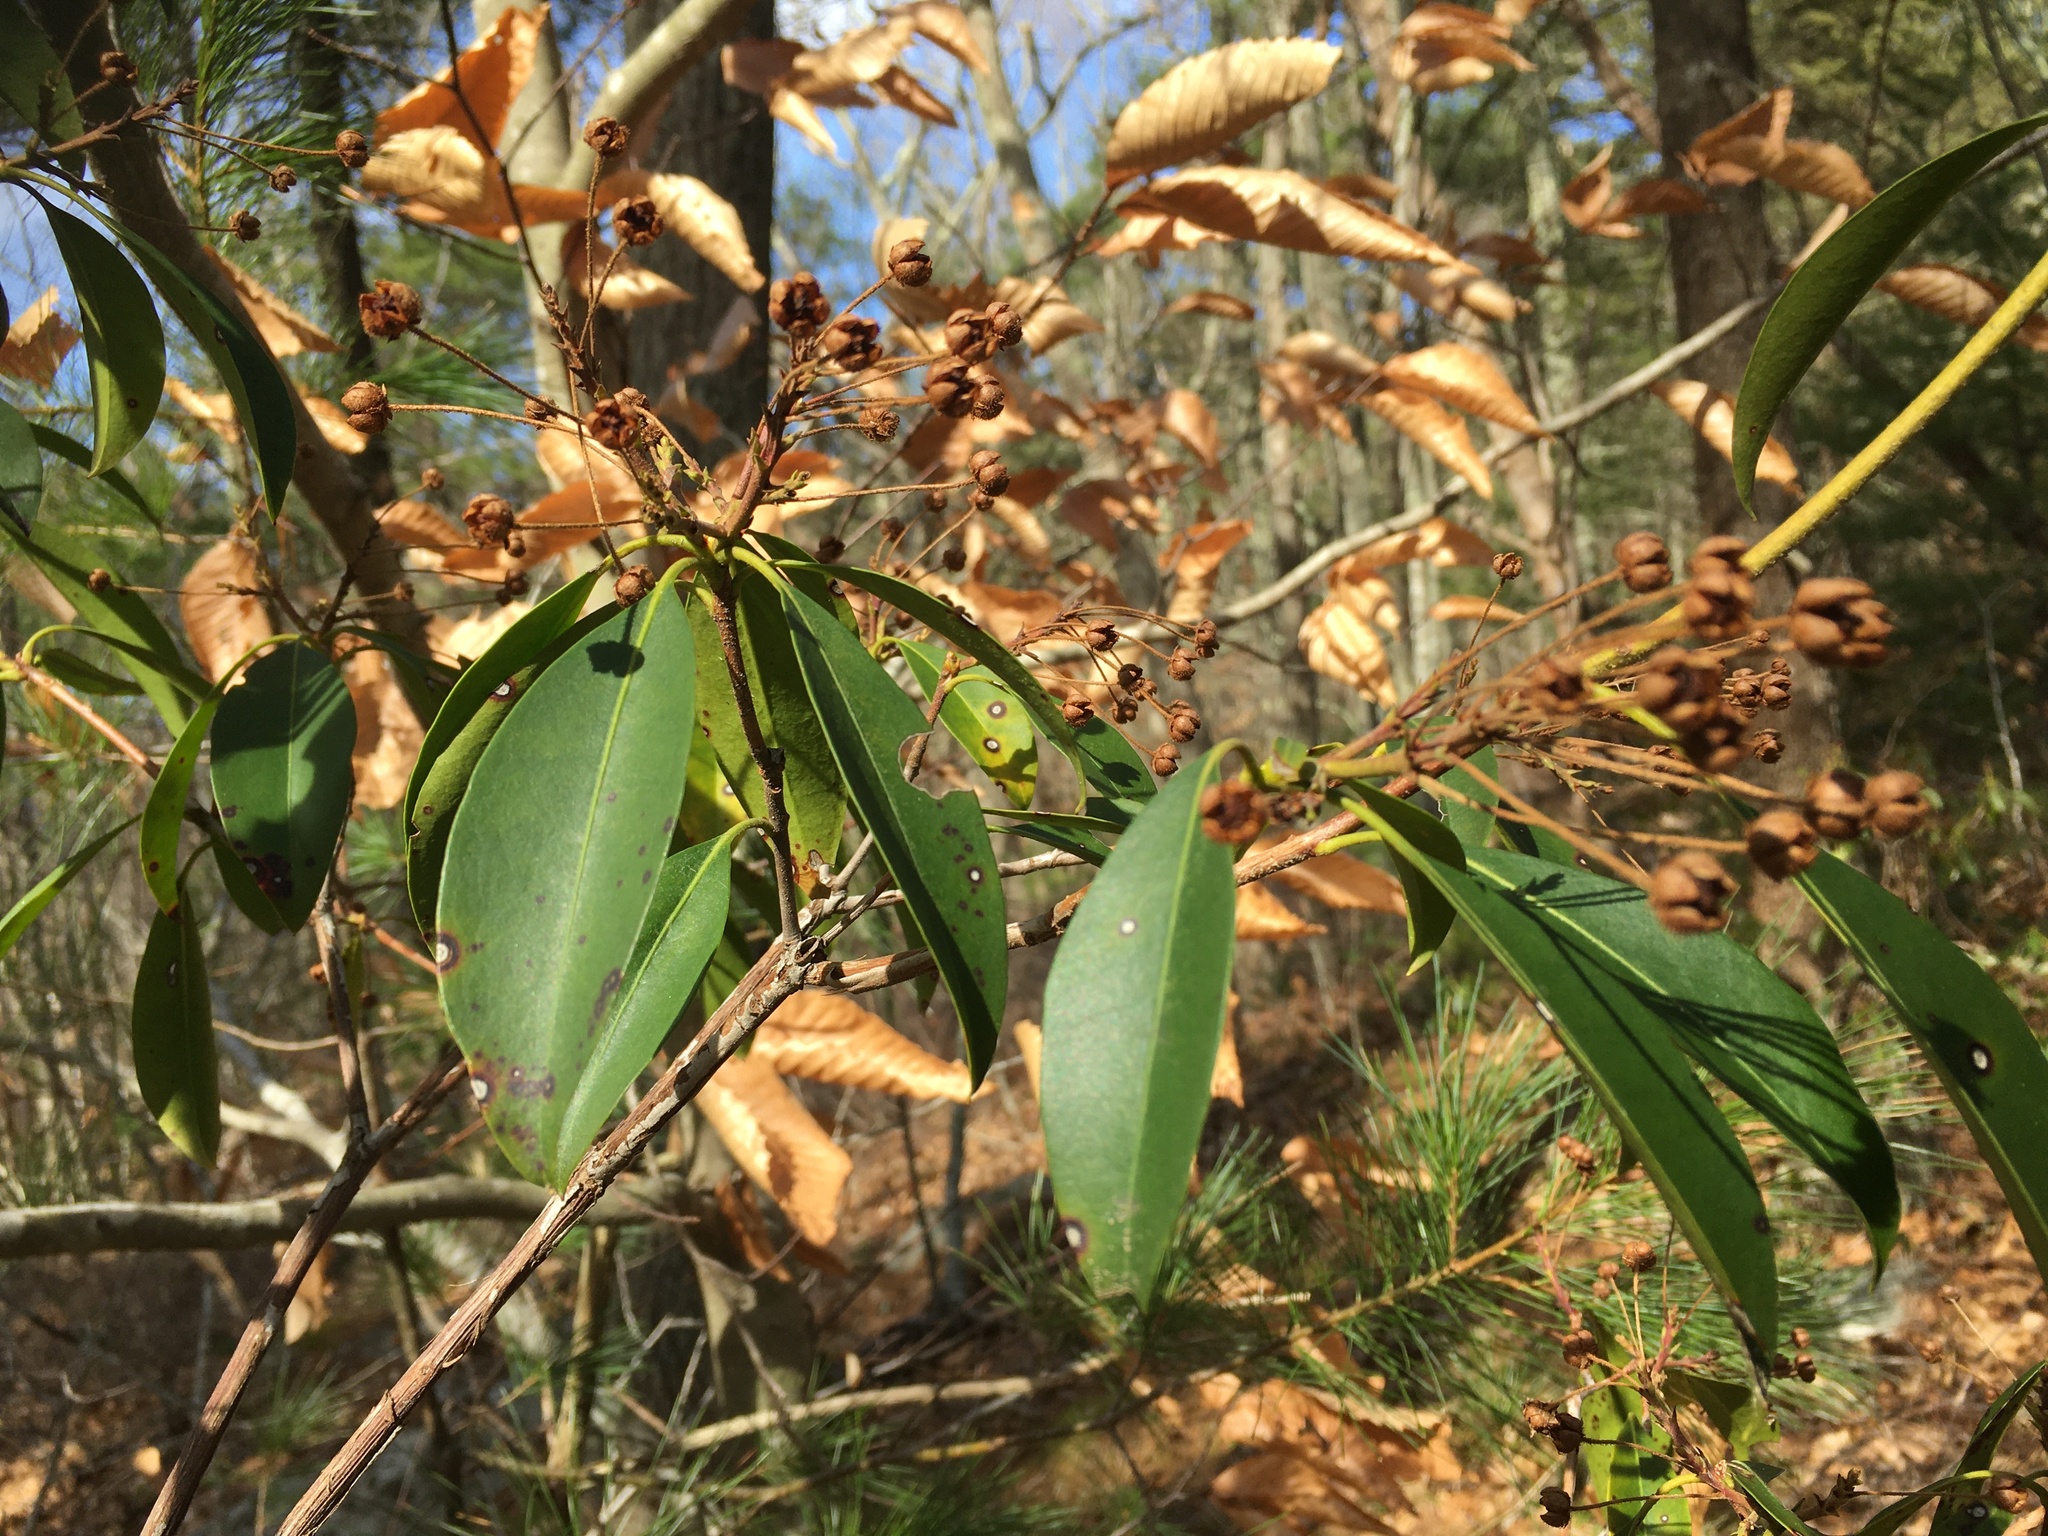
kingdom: Plantae
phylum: Tracheophyta
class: Magnoliopsida
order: Ericales
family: Ericaceae
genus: Kalmia
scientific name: Kalmia latifolia
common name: Mountain-laurel
